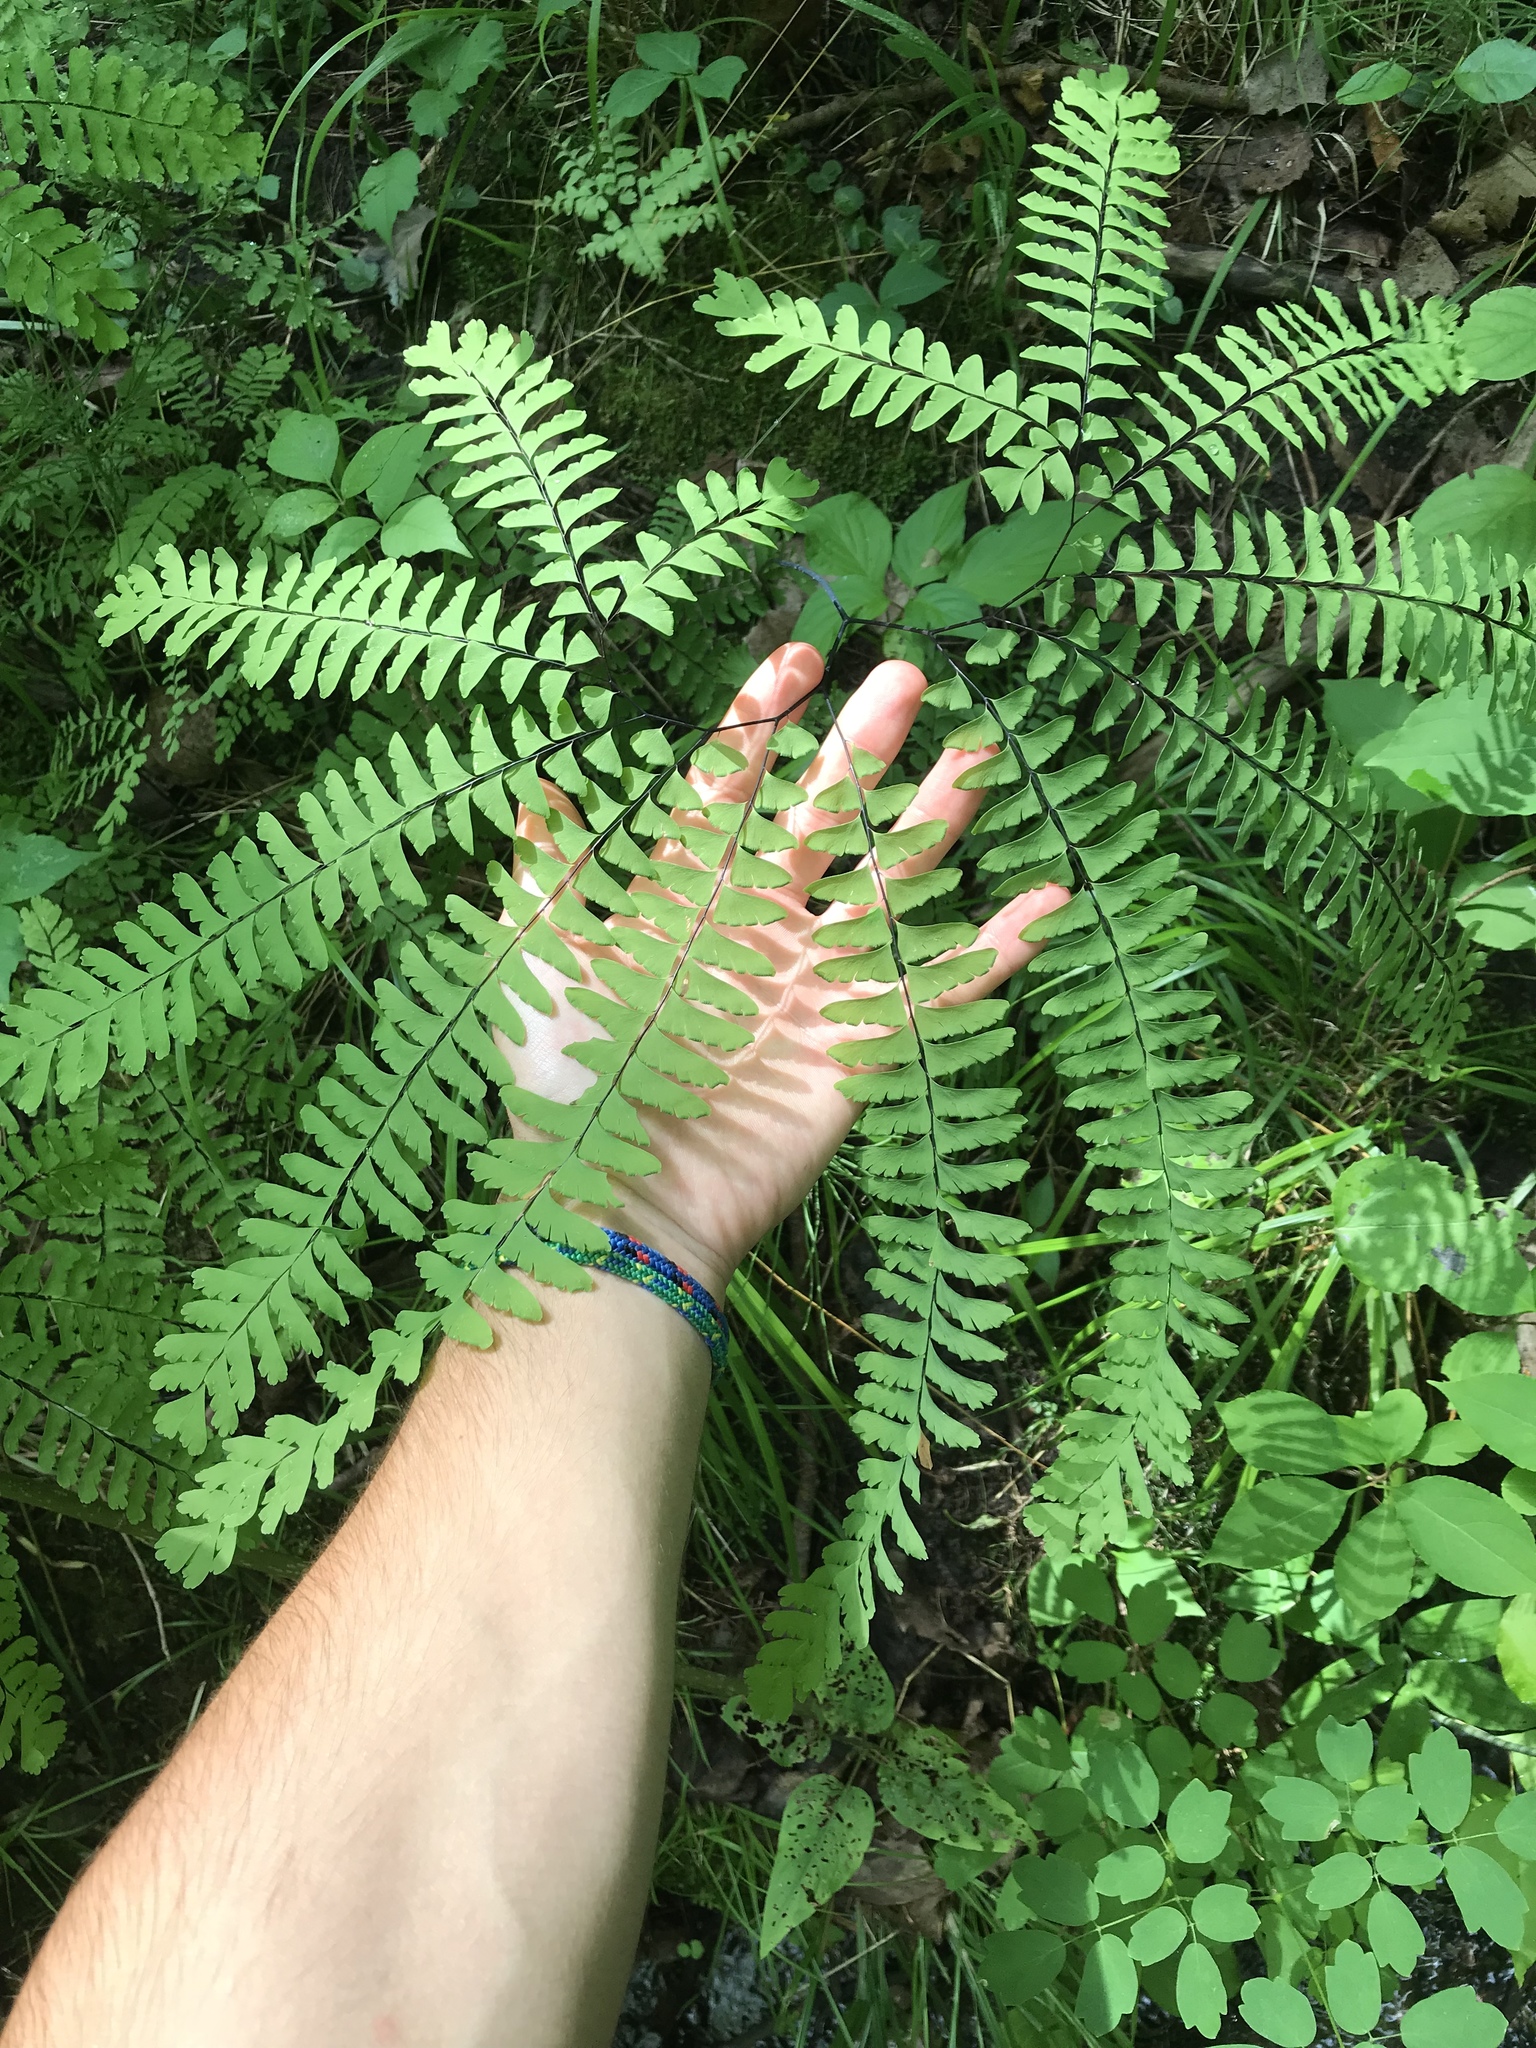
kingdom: Plantae
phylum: Tracheophyta
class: Polypodiopsida
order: Polypodiales
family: Pteridaceae
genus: Adiantum
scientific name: Adiantum pedatum
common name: Five-finger fern
